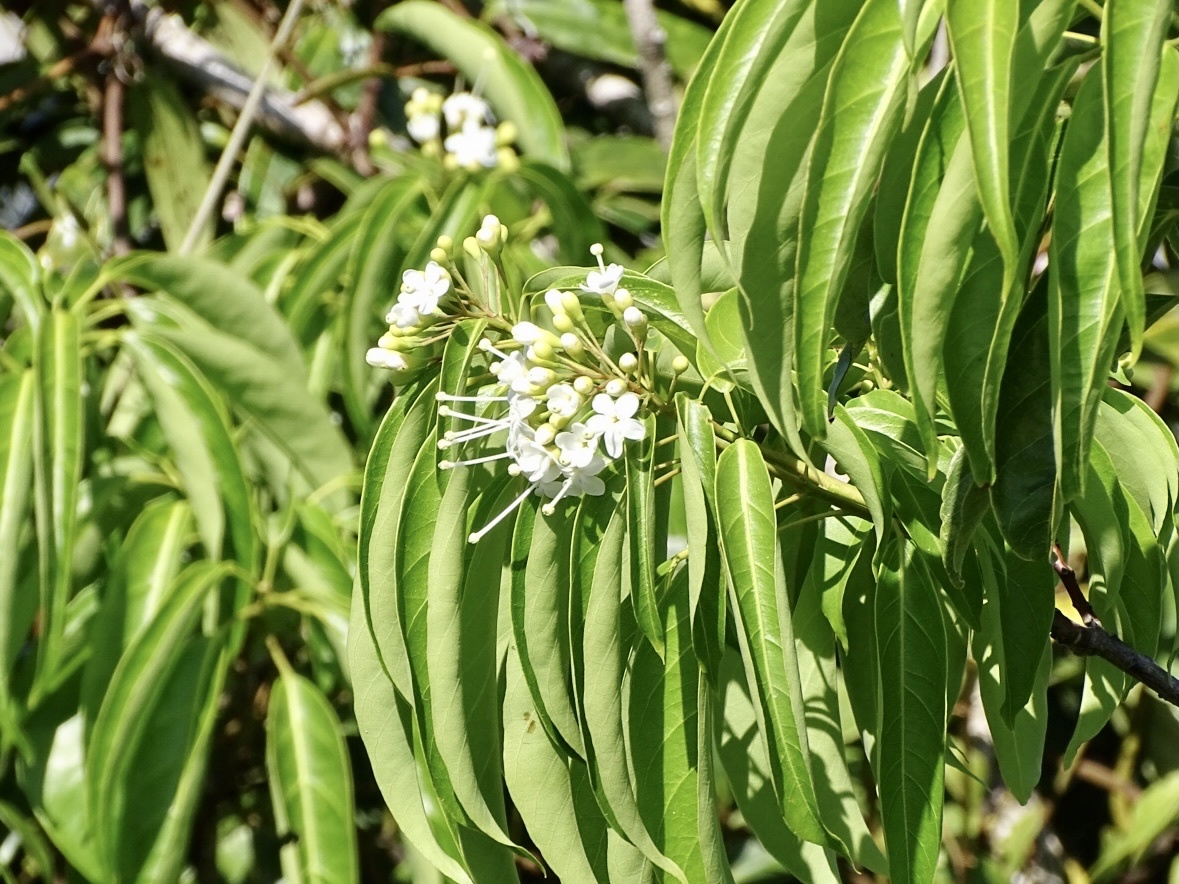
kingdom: Plantae
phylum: Tracheophyta
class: Magnoliopsida
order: Malvales
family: Malvaceae
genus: Reevesia
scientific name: Reevesia thyrsoidea
